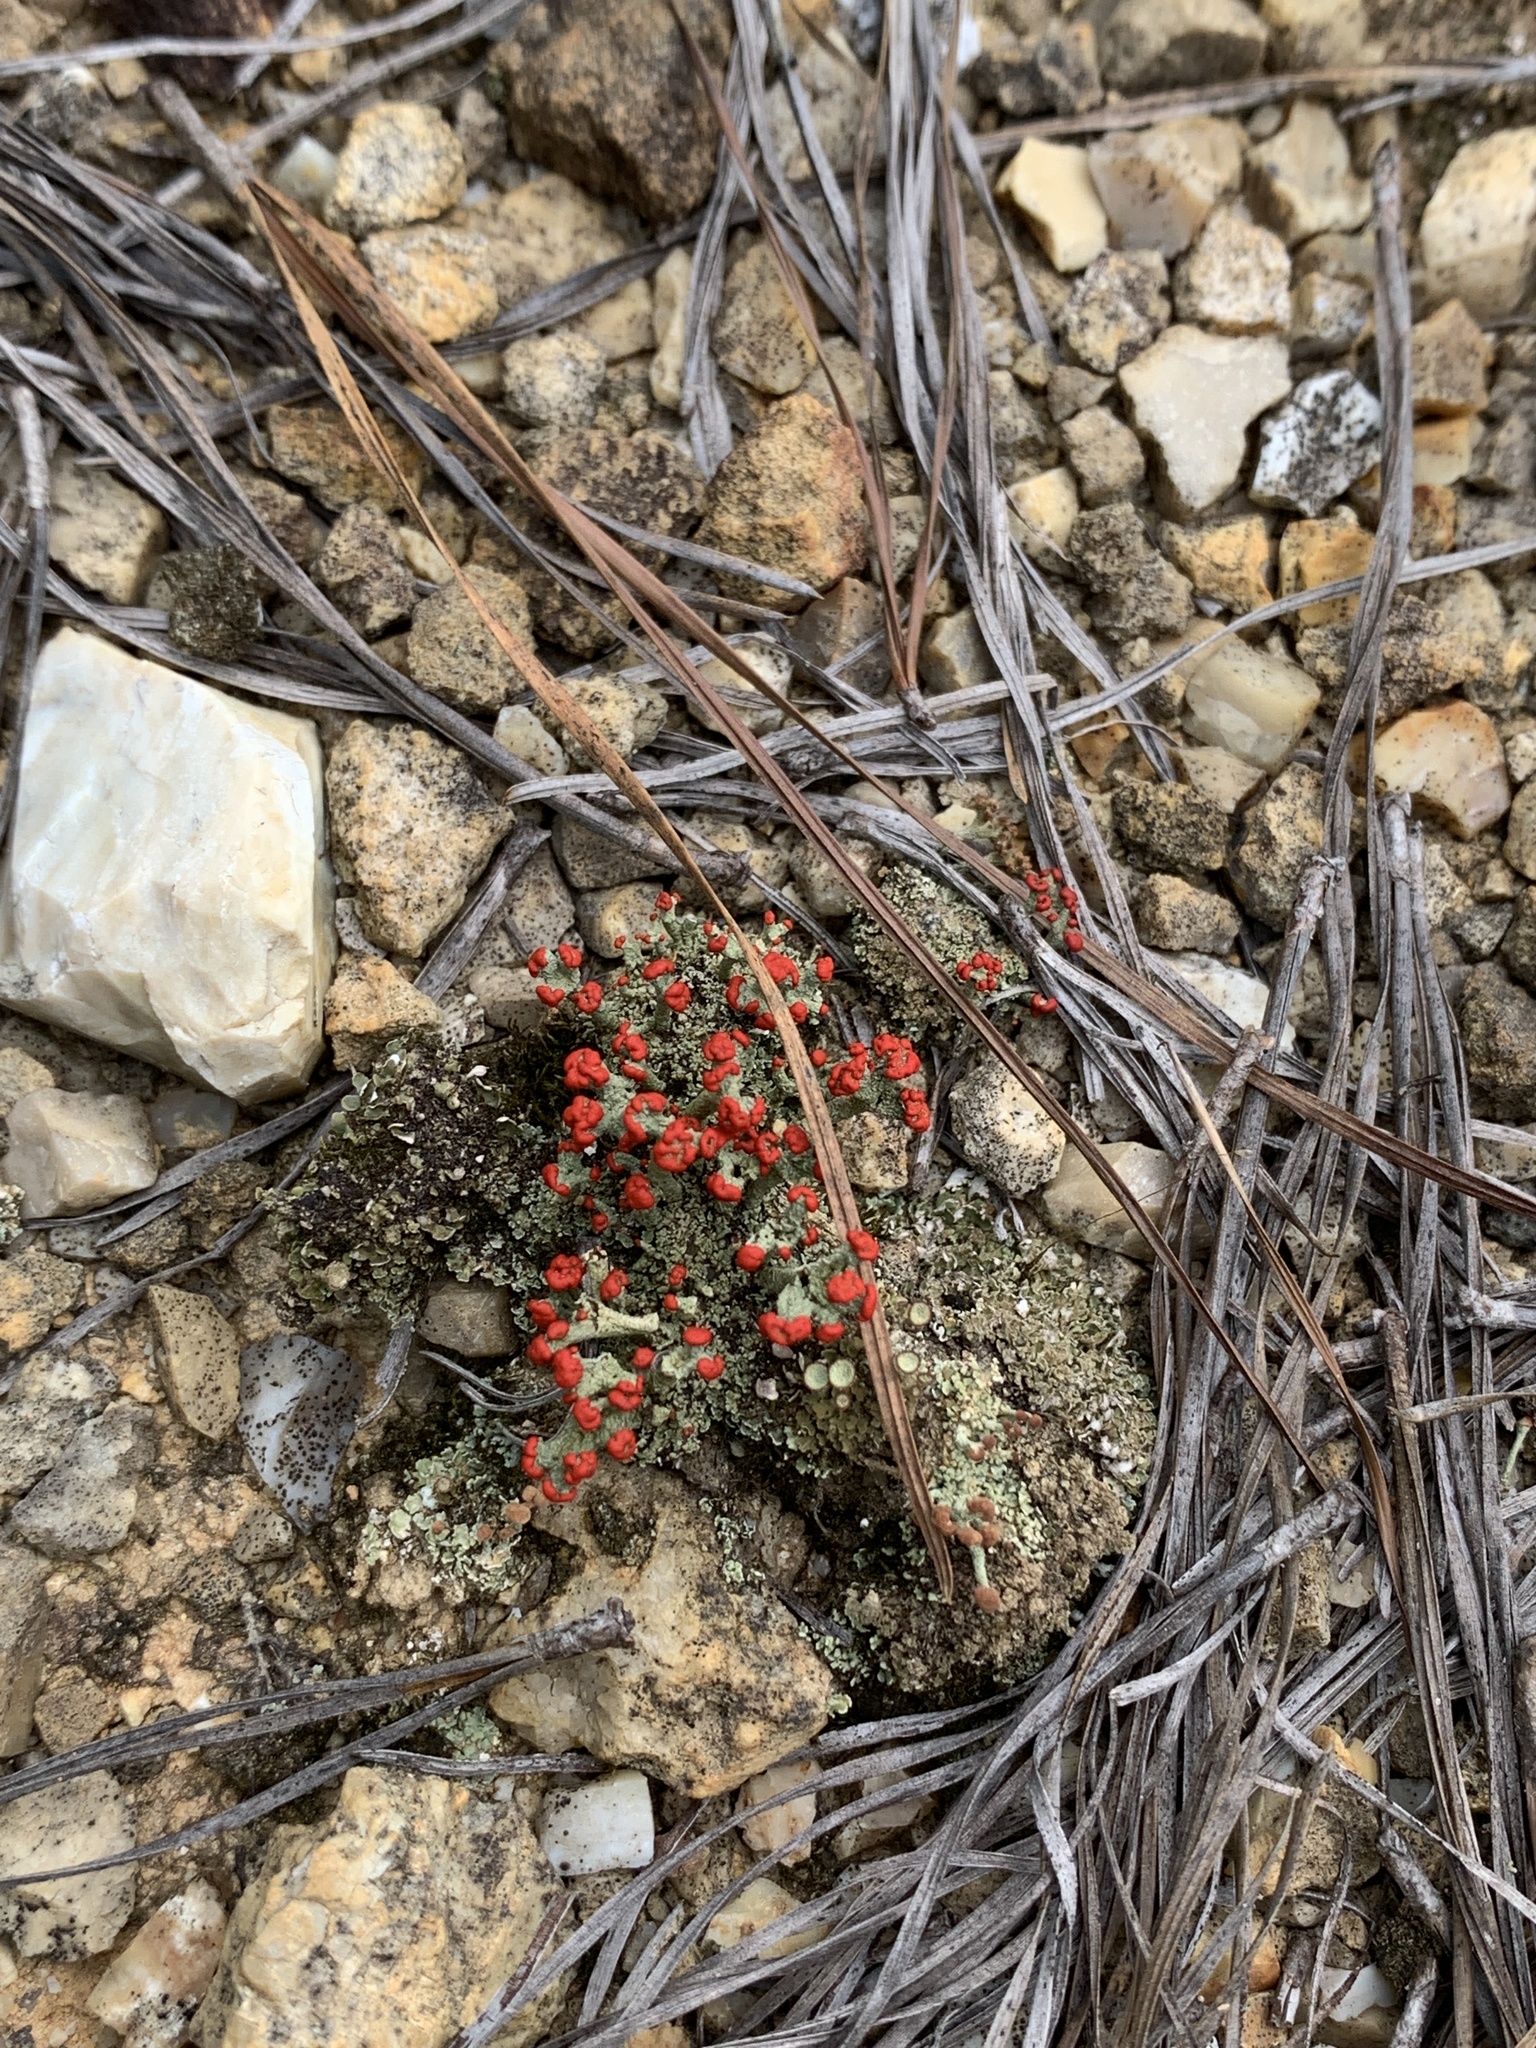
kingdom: Fungi
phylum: Ascomycota
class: Lecanoromycetes
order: Lecanorales
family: Cladoniaceae
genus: Cladonia
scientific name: Cladonia floerkeana
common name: Gritty british soldiers lichen
